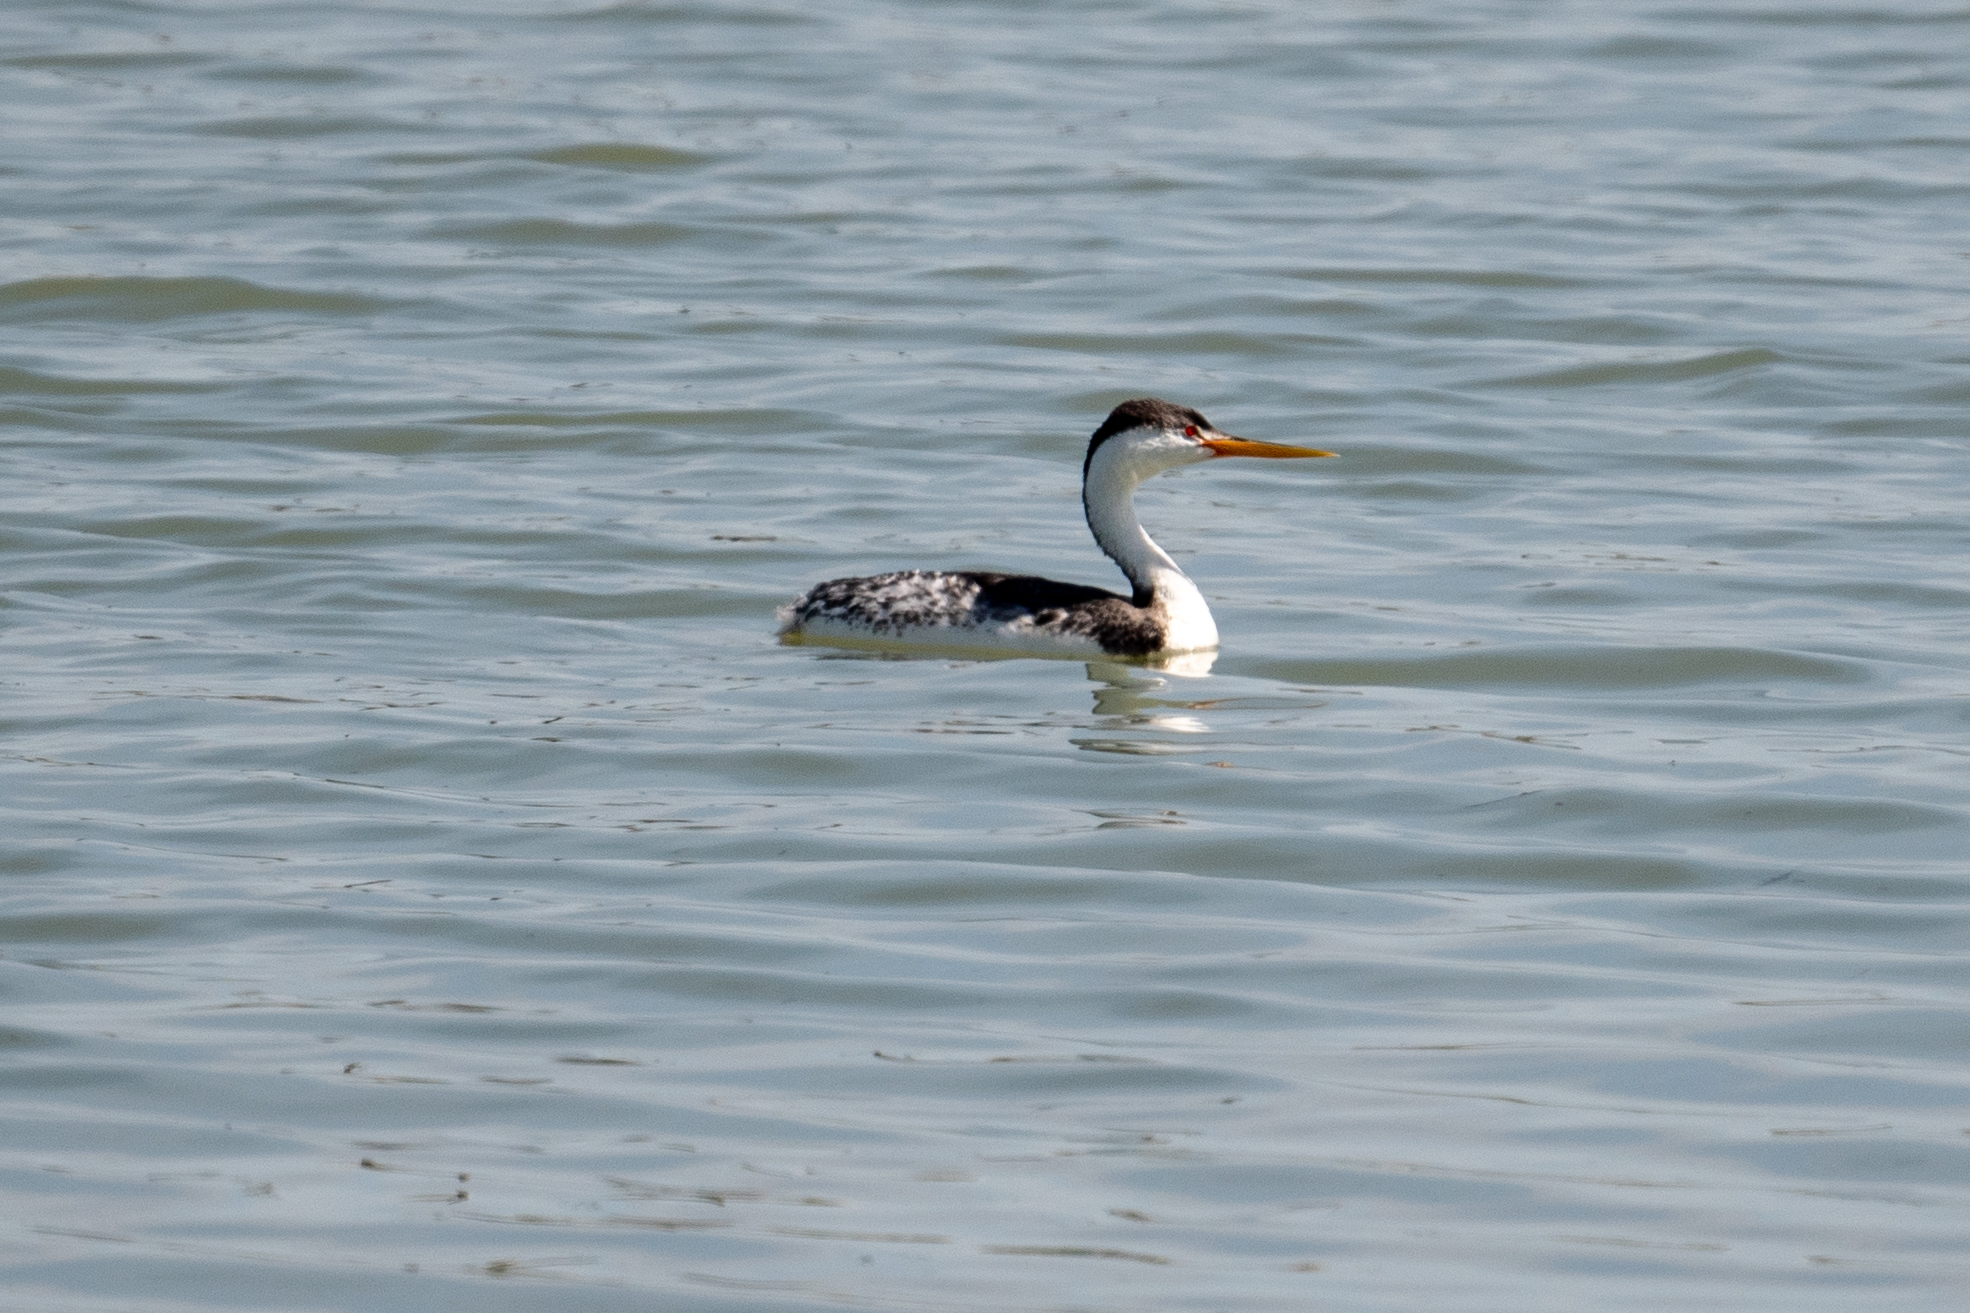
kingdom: Animalia
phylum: Chordata
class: Aves
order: Podicipediformes
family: Podicipedidae
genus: Aechmophorus
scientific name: Aechmophorus clarkii
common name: Clark's grebe
